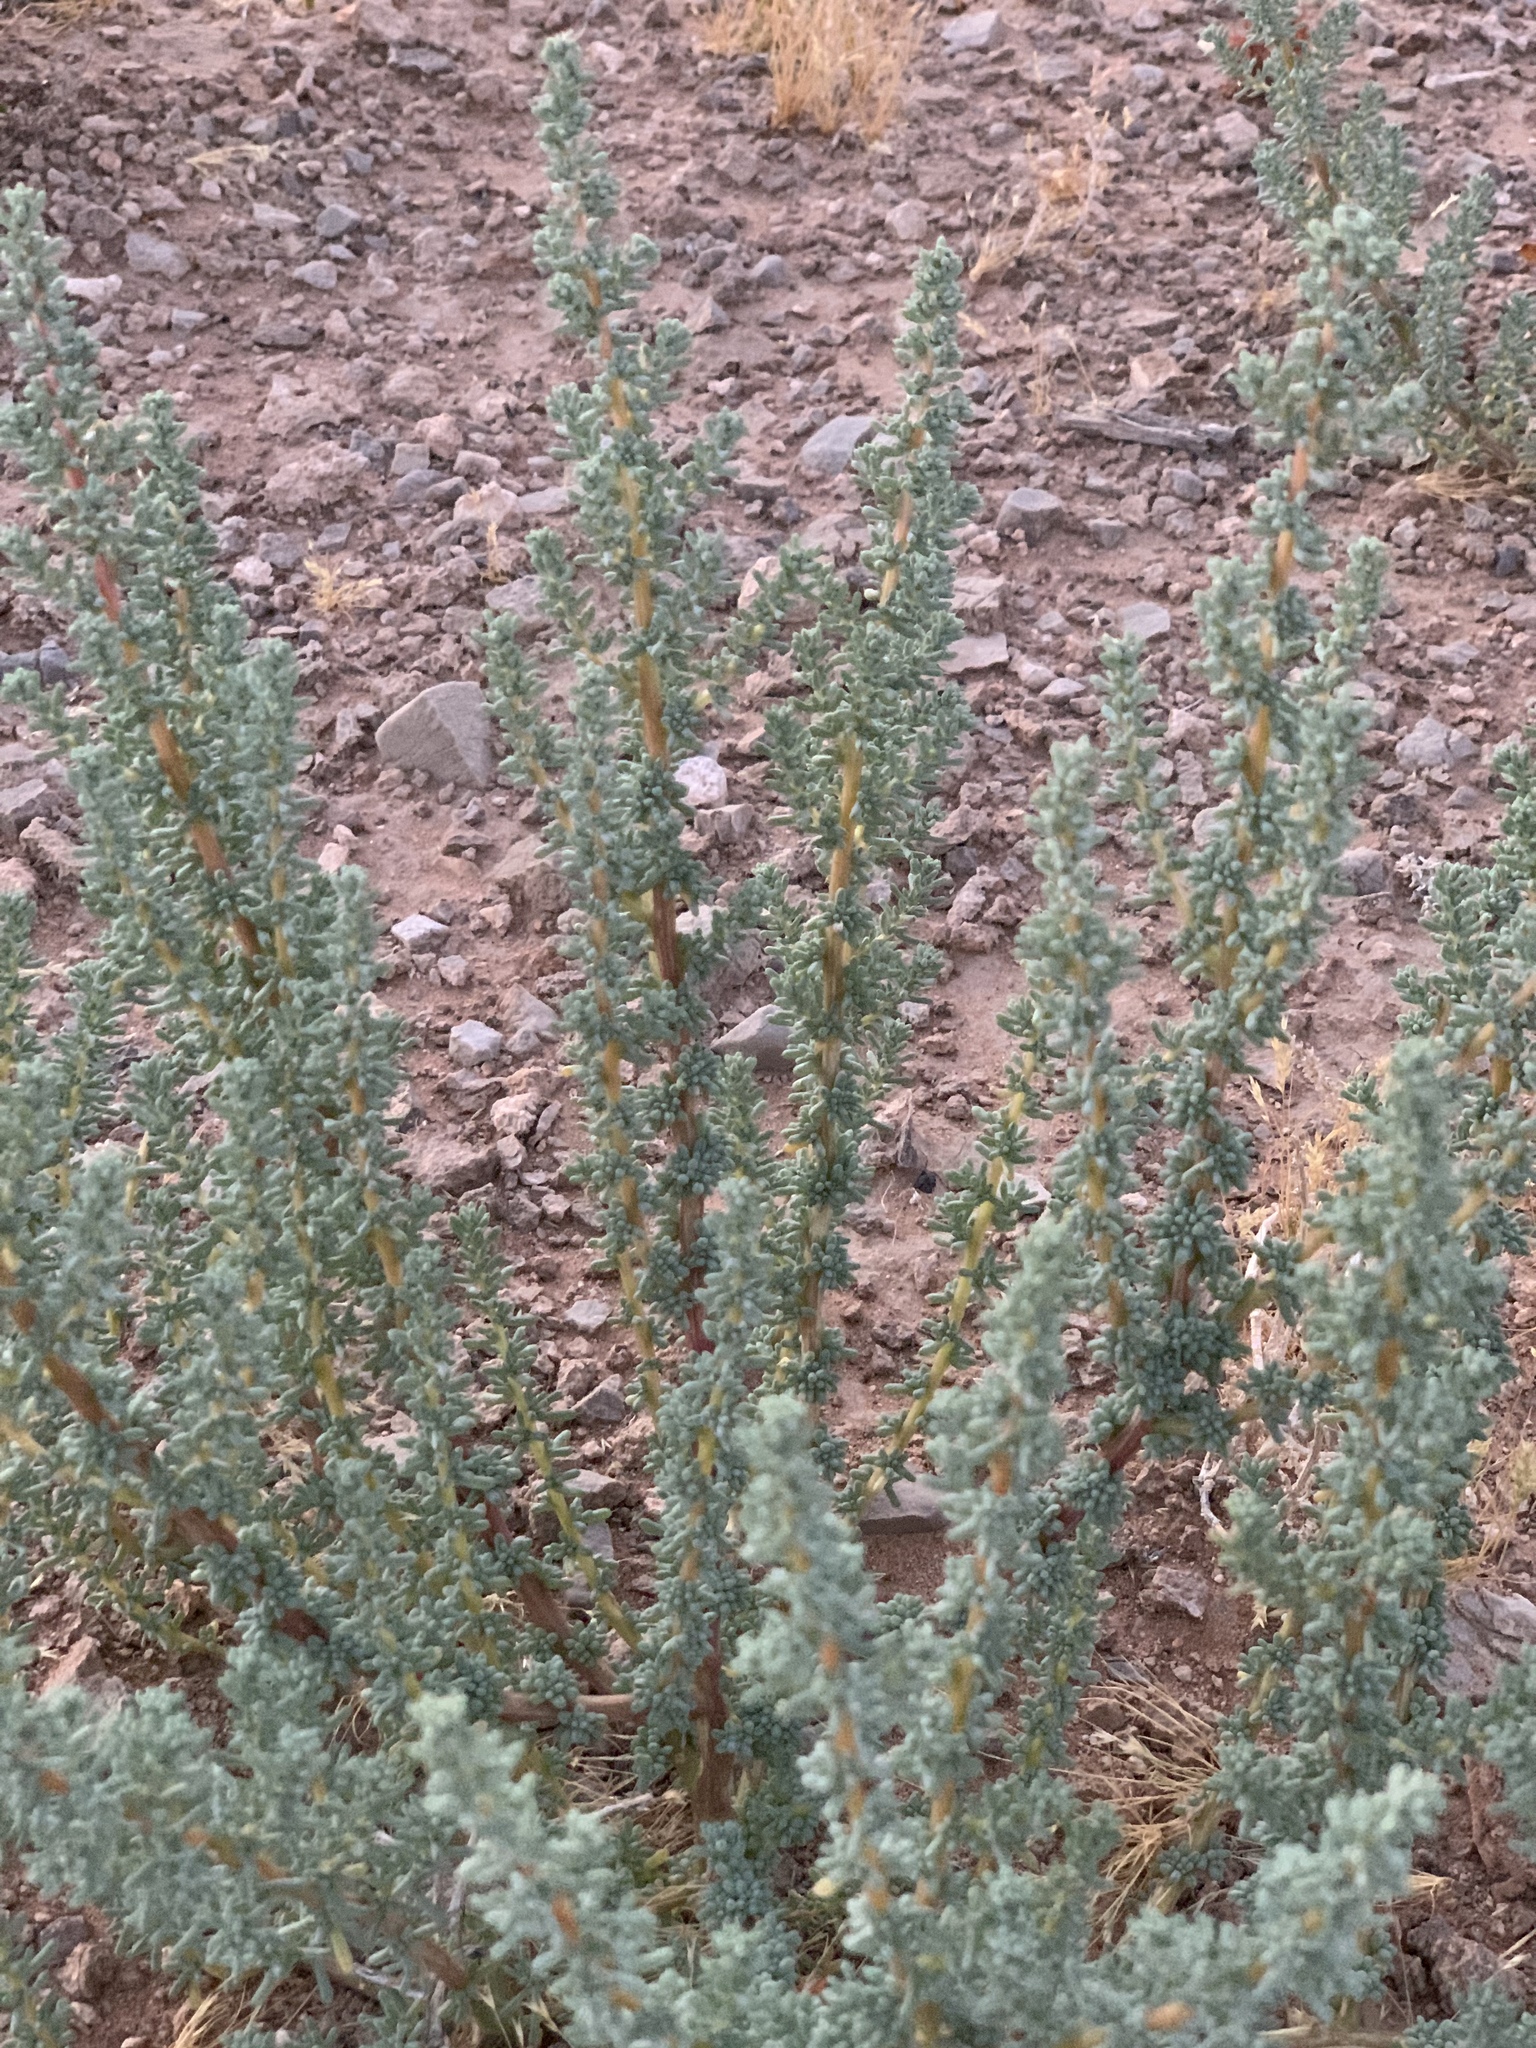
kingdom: Plantae
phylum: Tracheophyta
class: Magnoliopsida
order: Caryophyllales
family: Amaranthaceae
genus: Halogeton
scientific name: Halogeton glomeratus
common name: Saltlover
